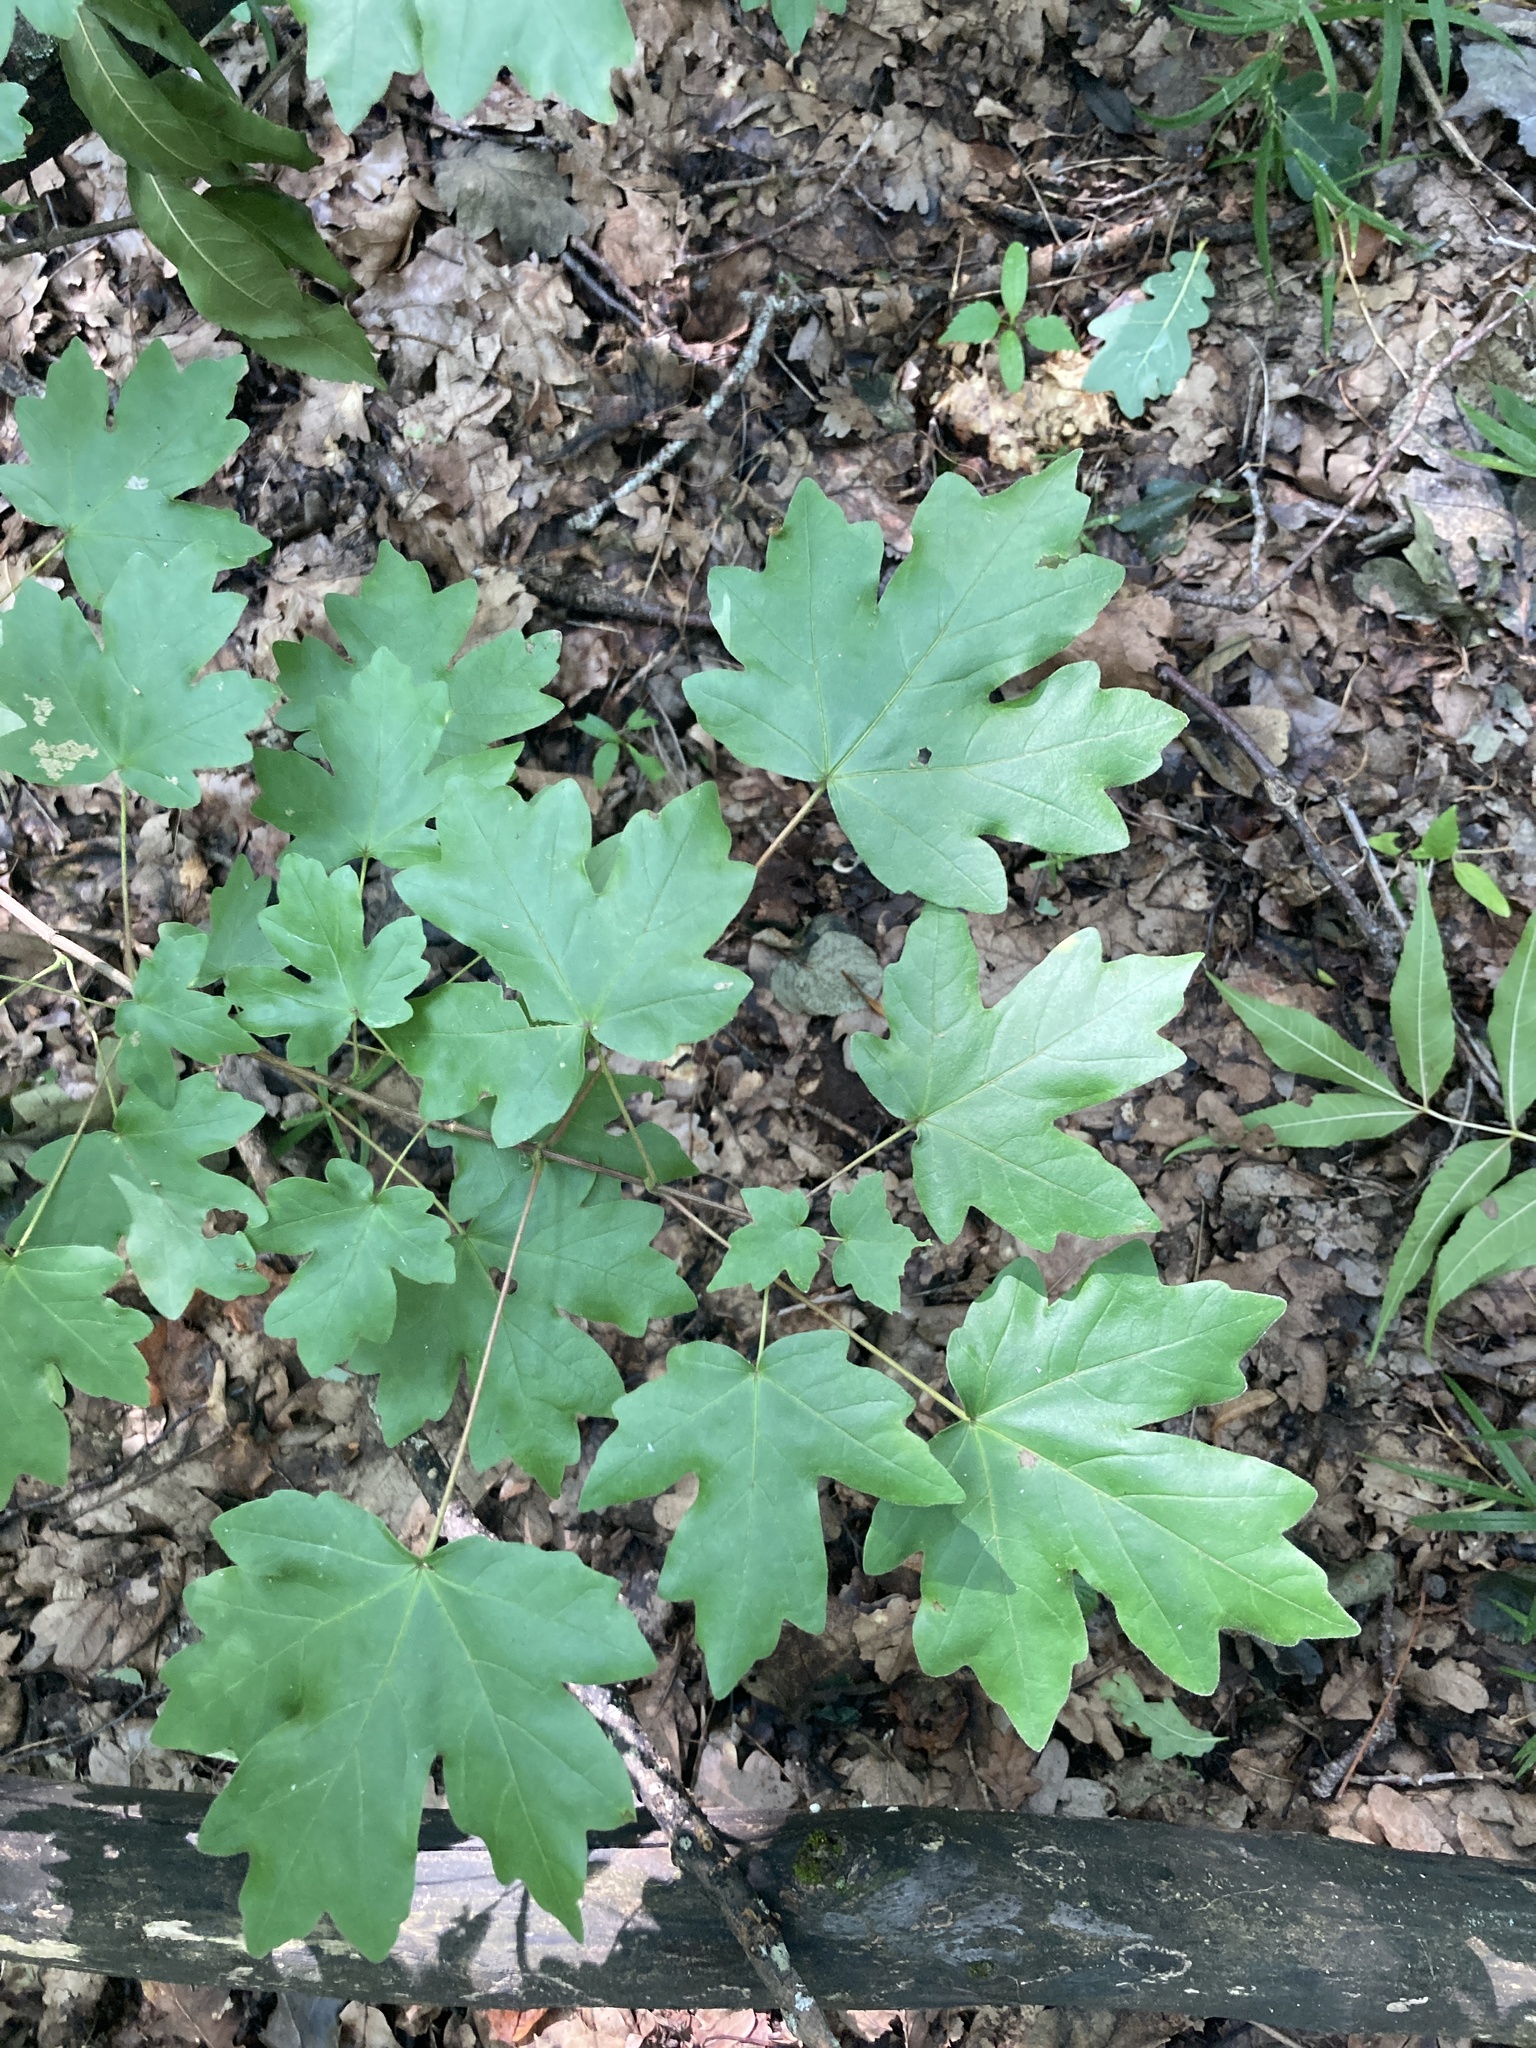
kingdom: Plantae
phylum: Tracheophyta
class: Magnoliopsida
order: Sapindales
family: Sapindaceae
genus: Acer
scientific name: Acer campestre
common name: Field maple
